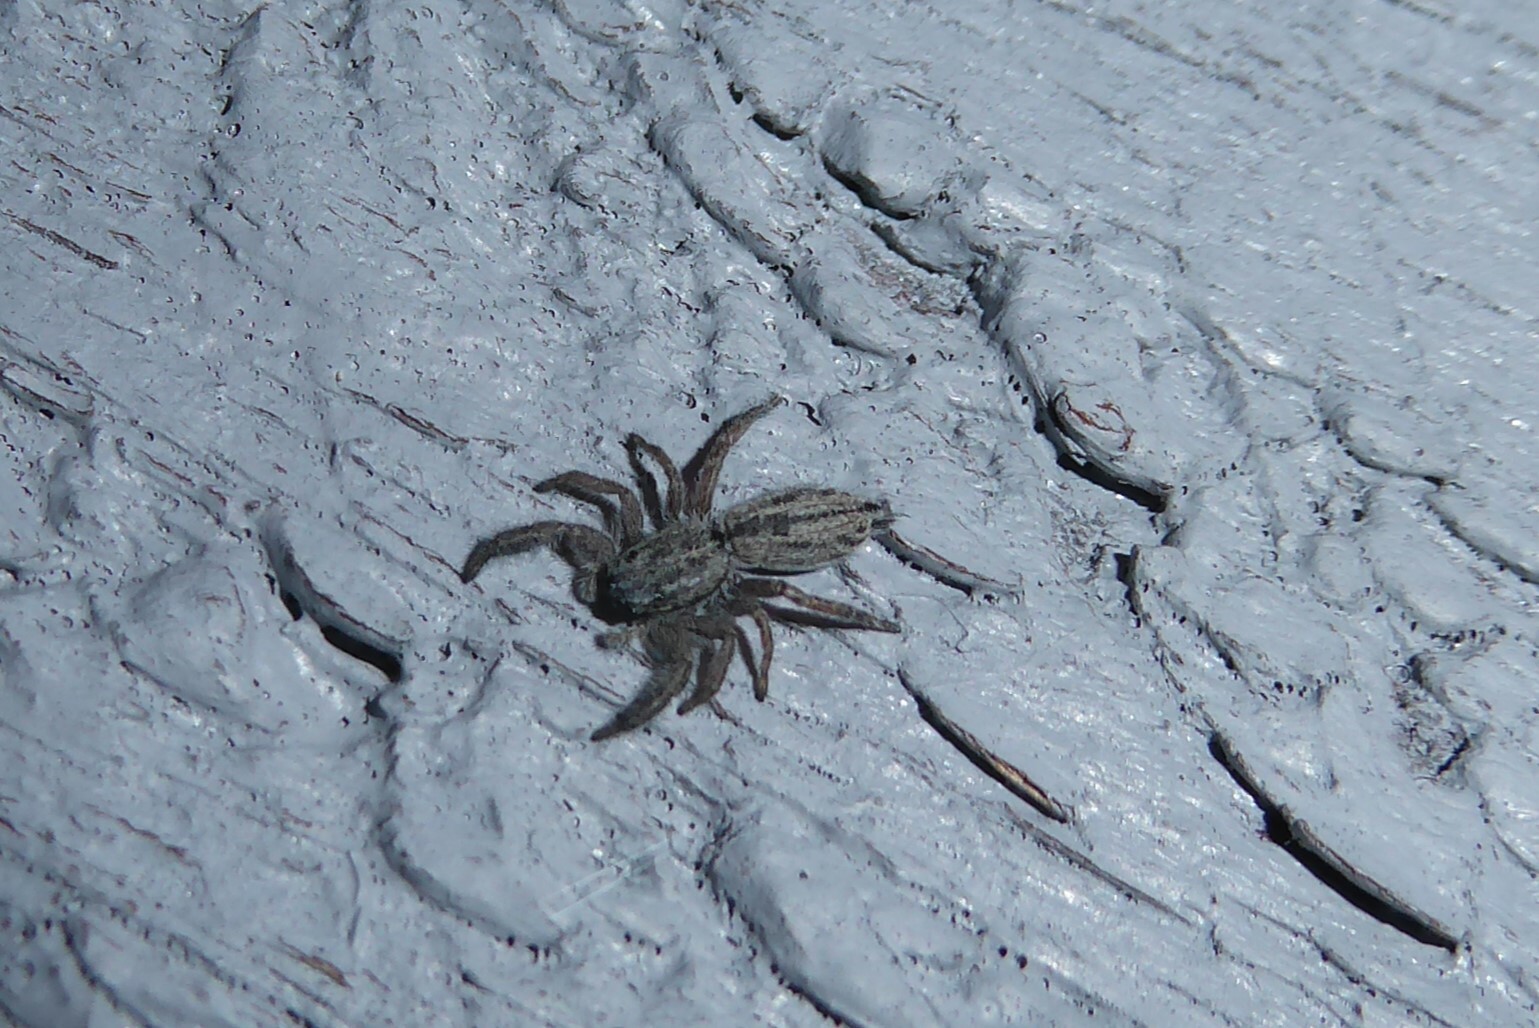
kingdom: Animalia
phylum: Arthropoda
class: Arachnida
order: Araneae
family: Salticidae
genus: Holoplatys
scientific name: Holoplatys apressus
